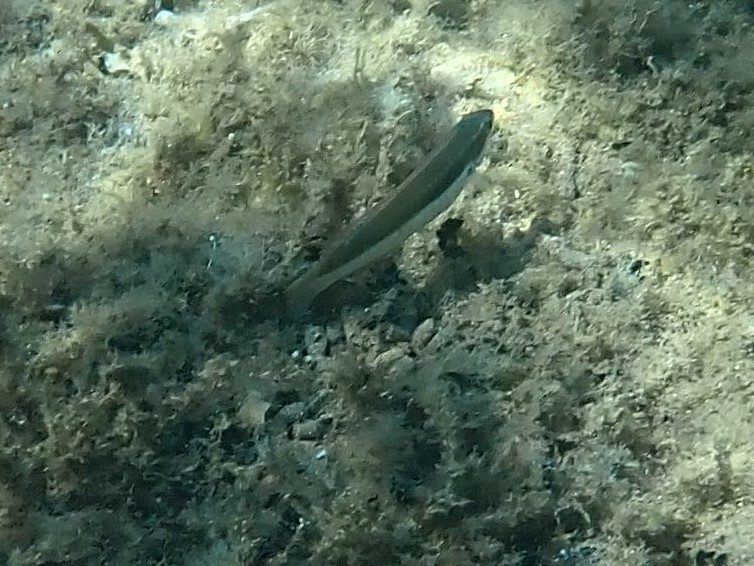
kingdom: Animalia
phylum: Chordata
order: Perciformes
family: Labridae
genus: Coris
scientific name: Coris julis
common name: Rainbow wrasse
